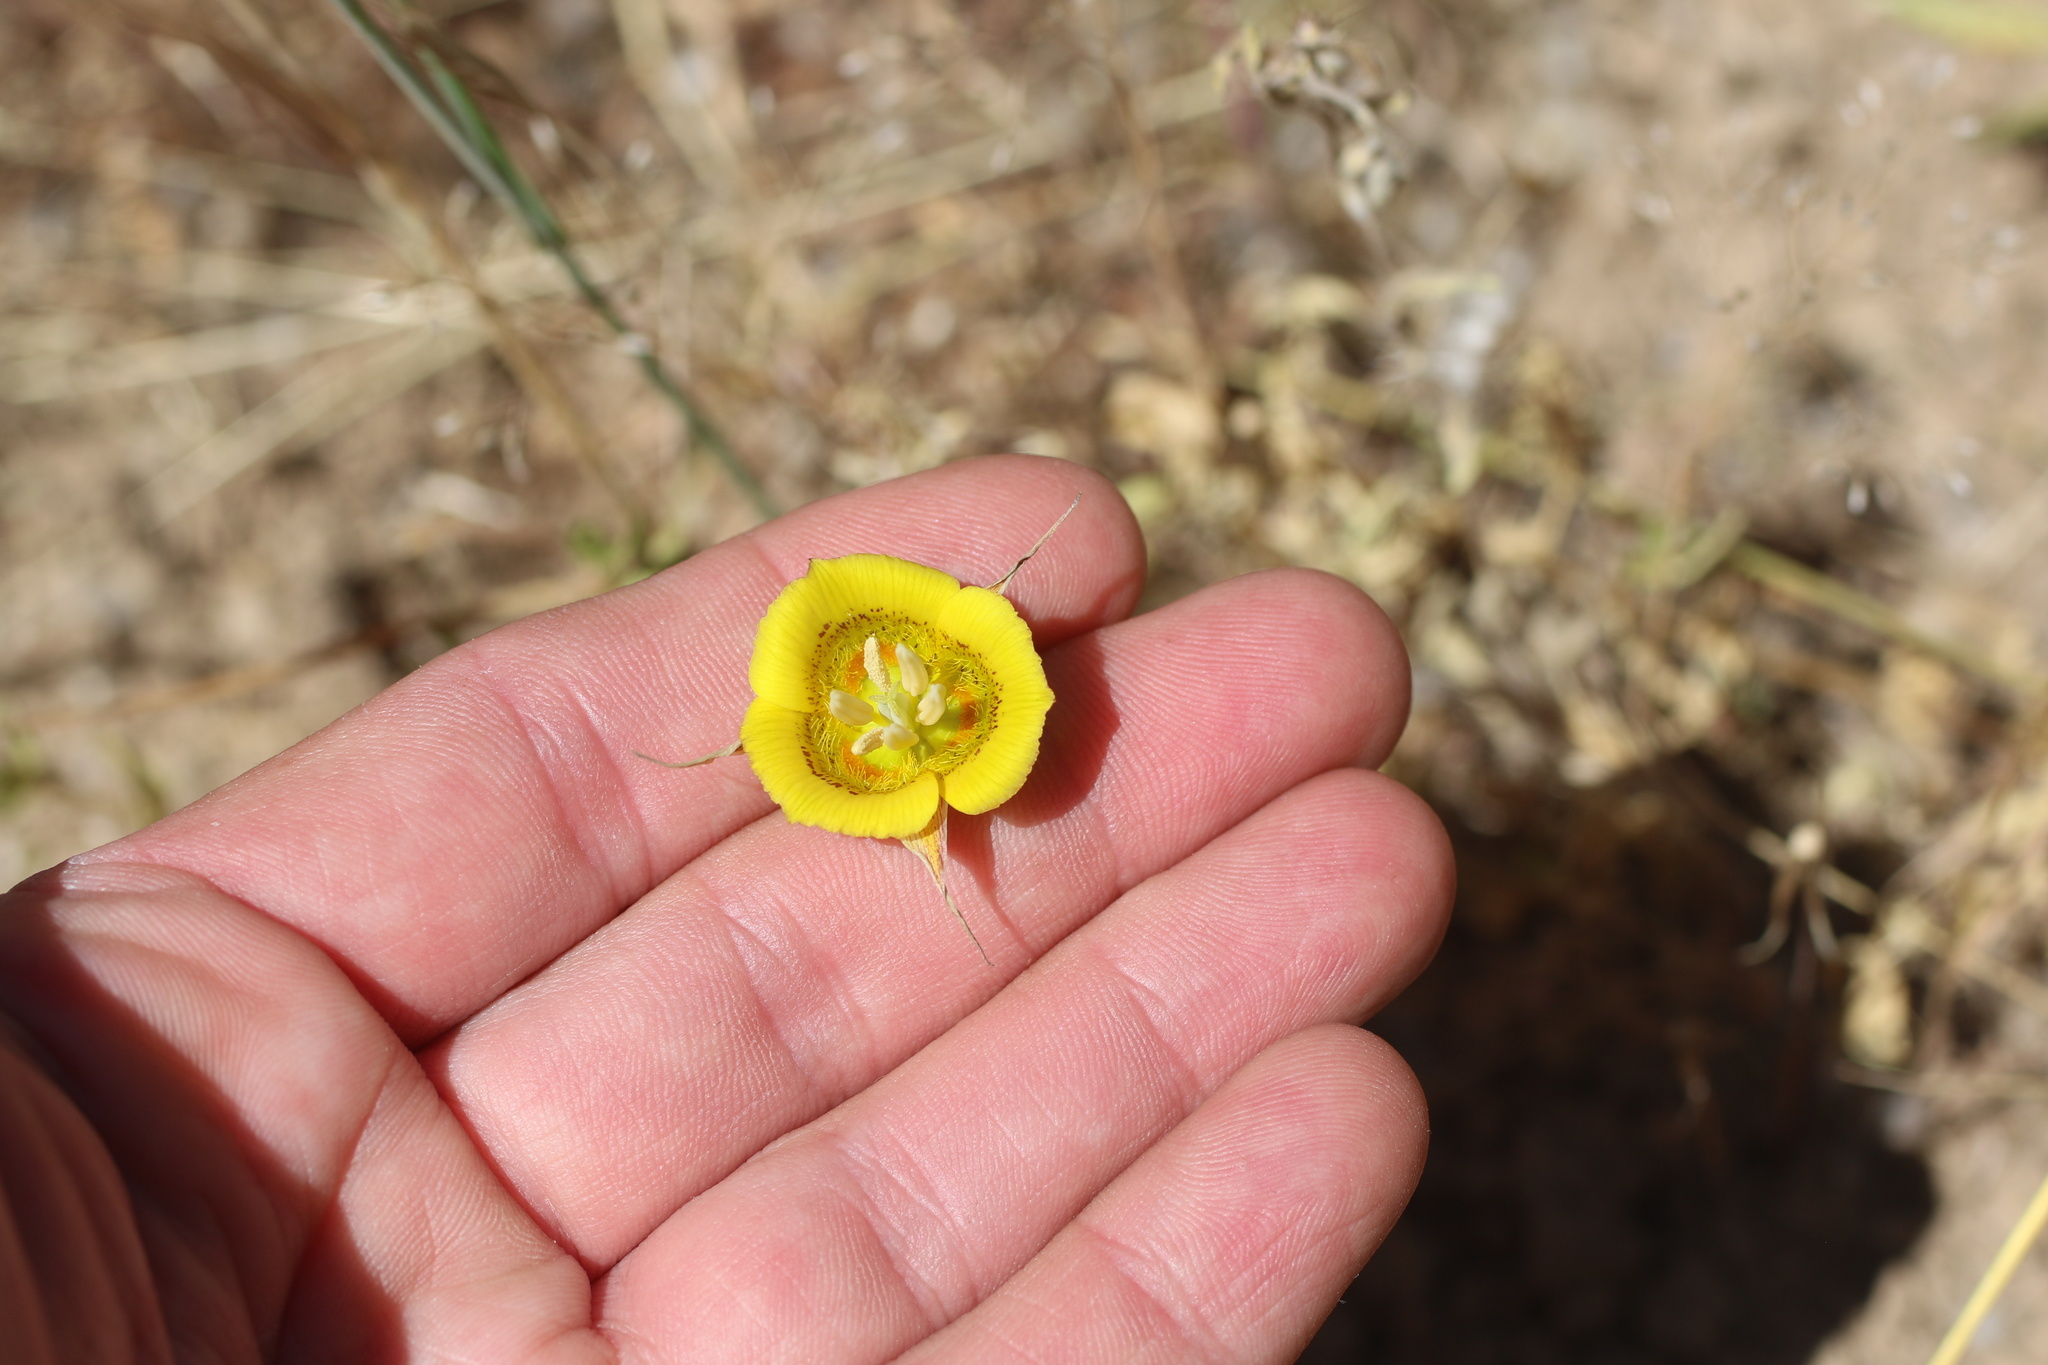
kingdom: Plantae
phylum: Tracheophyta
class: Liliopsida
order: Liliales
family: Liliaceae
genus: Calochortus
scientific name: Calochortus luteus
